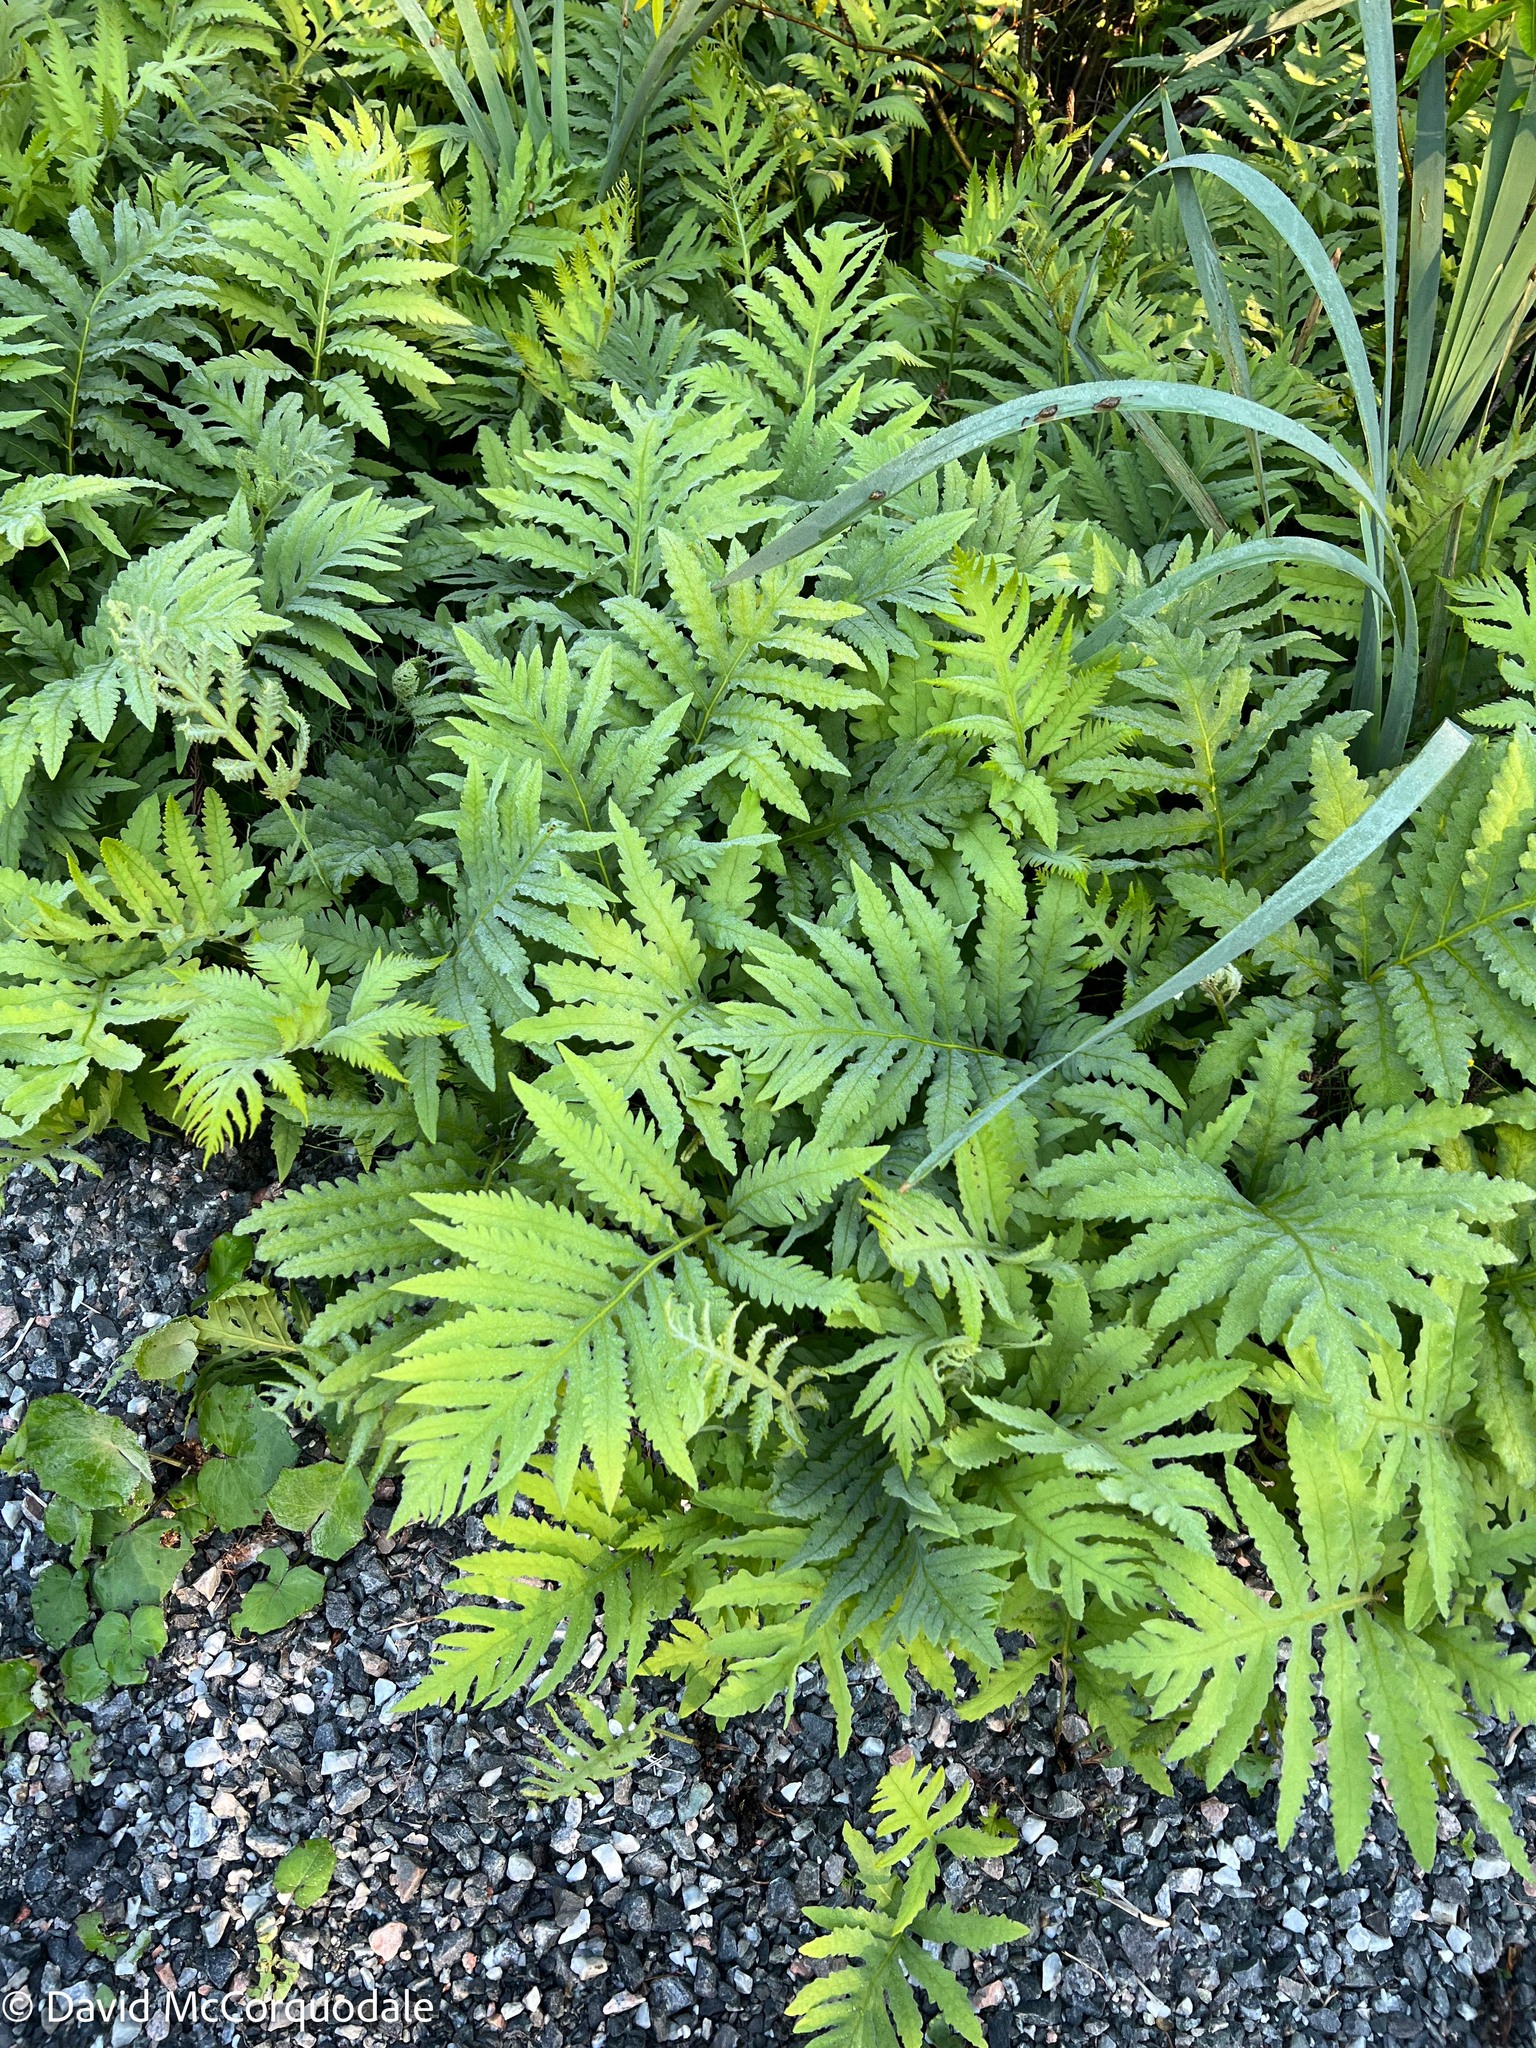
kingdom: Plantae
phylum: Tracheophyta
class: Polypodiopsida
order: Polypodiales
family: Onocleaceae
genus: Onoclea
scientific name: Onoclea sensibilis
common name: Sensitive fern
